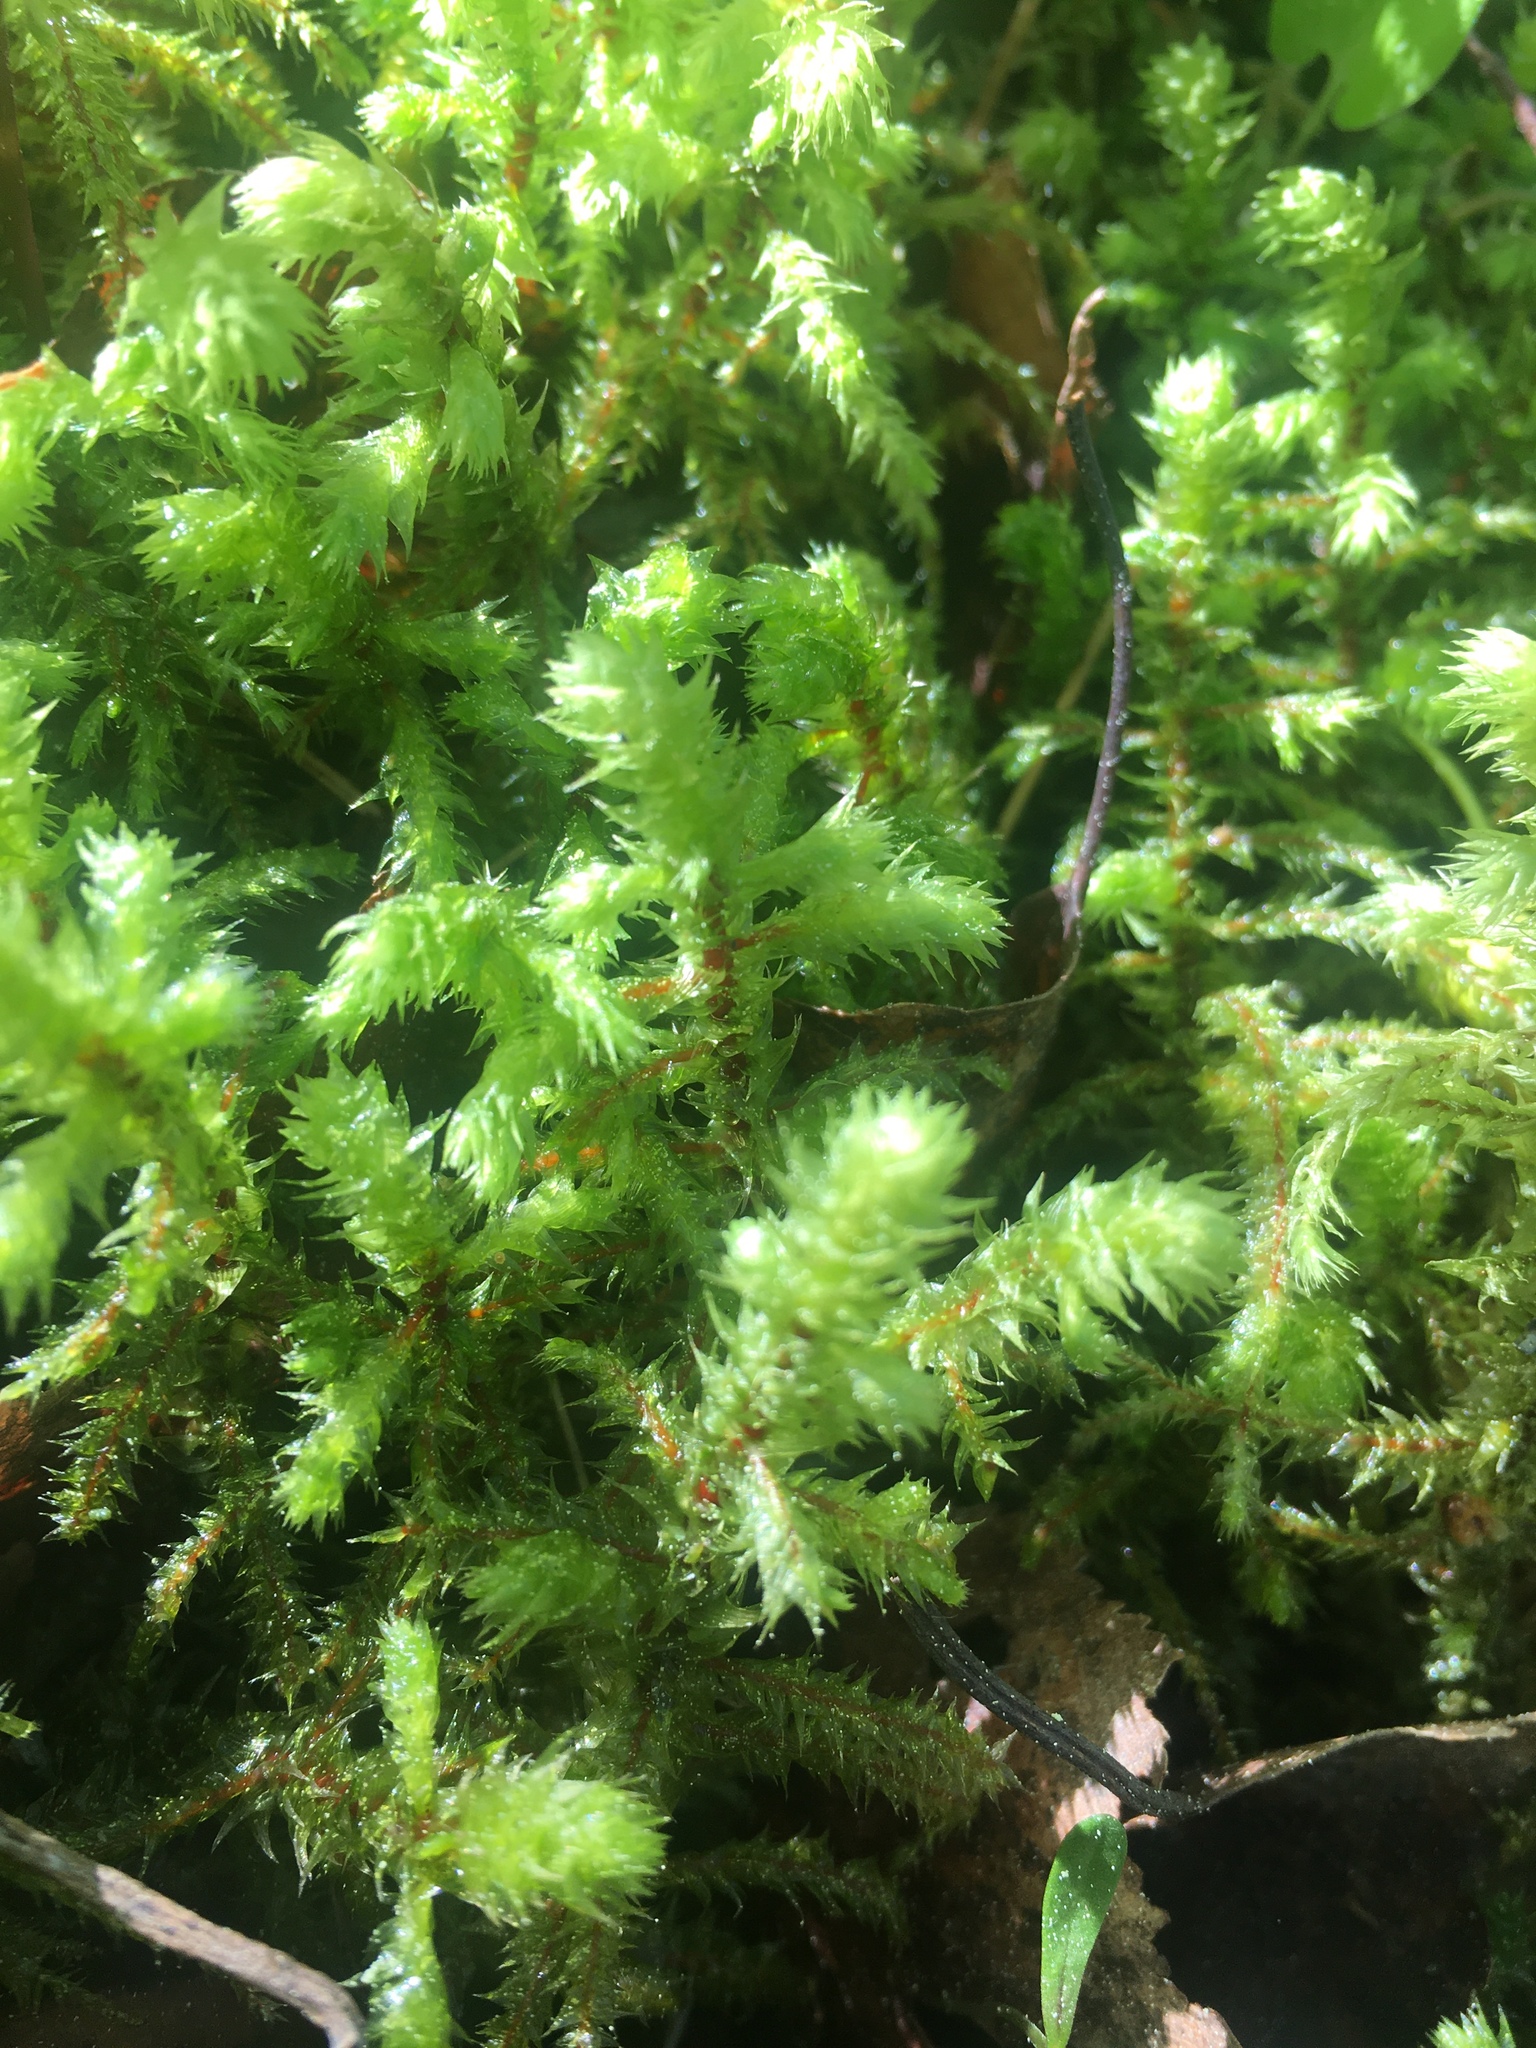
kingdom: Plantae
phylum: Bryophyta
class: Bryopsida
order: Hypnales
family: Hylocomiaceae
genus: Hylocomiadelphus
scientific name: Hylocomiadelphus triquetrus
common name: Rough goose neck moss
